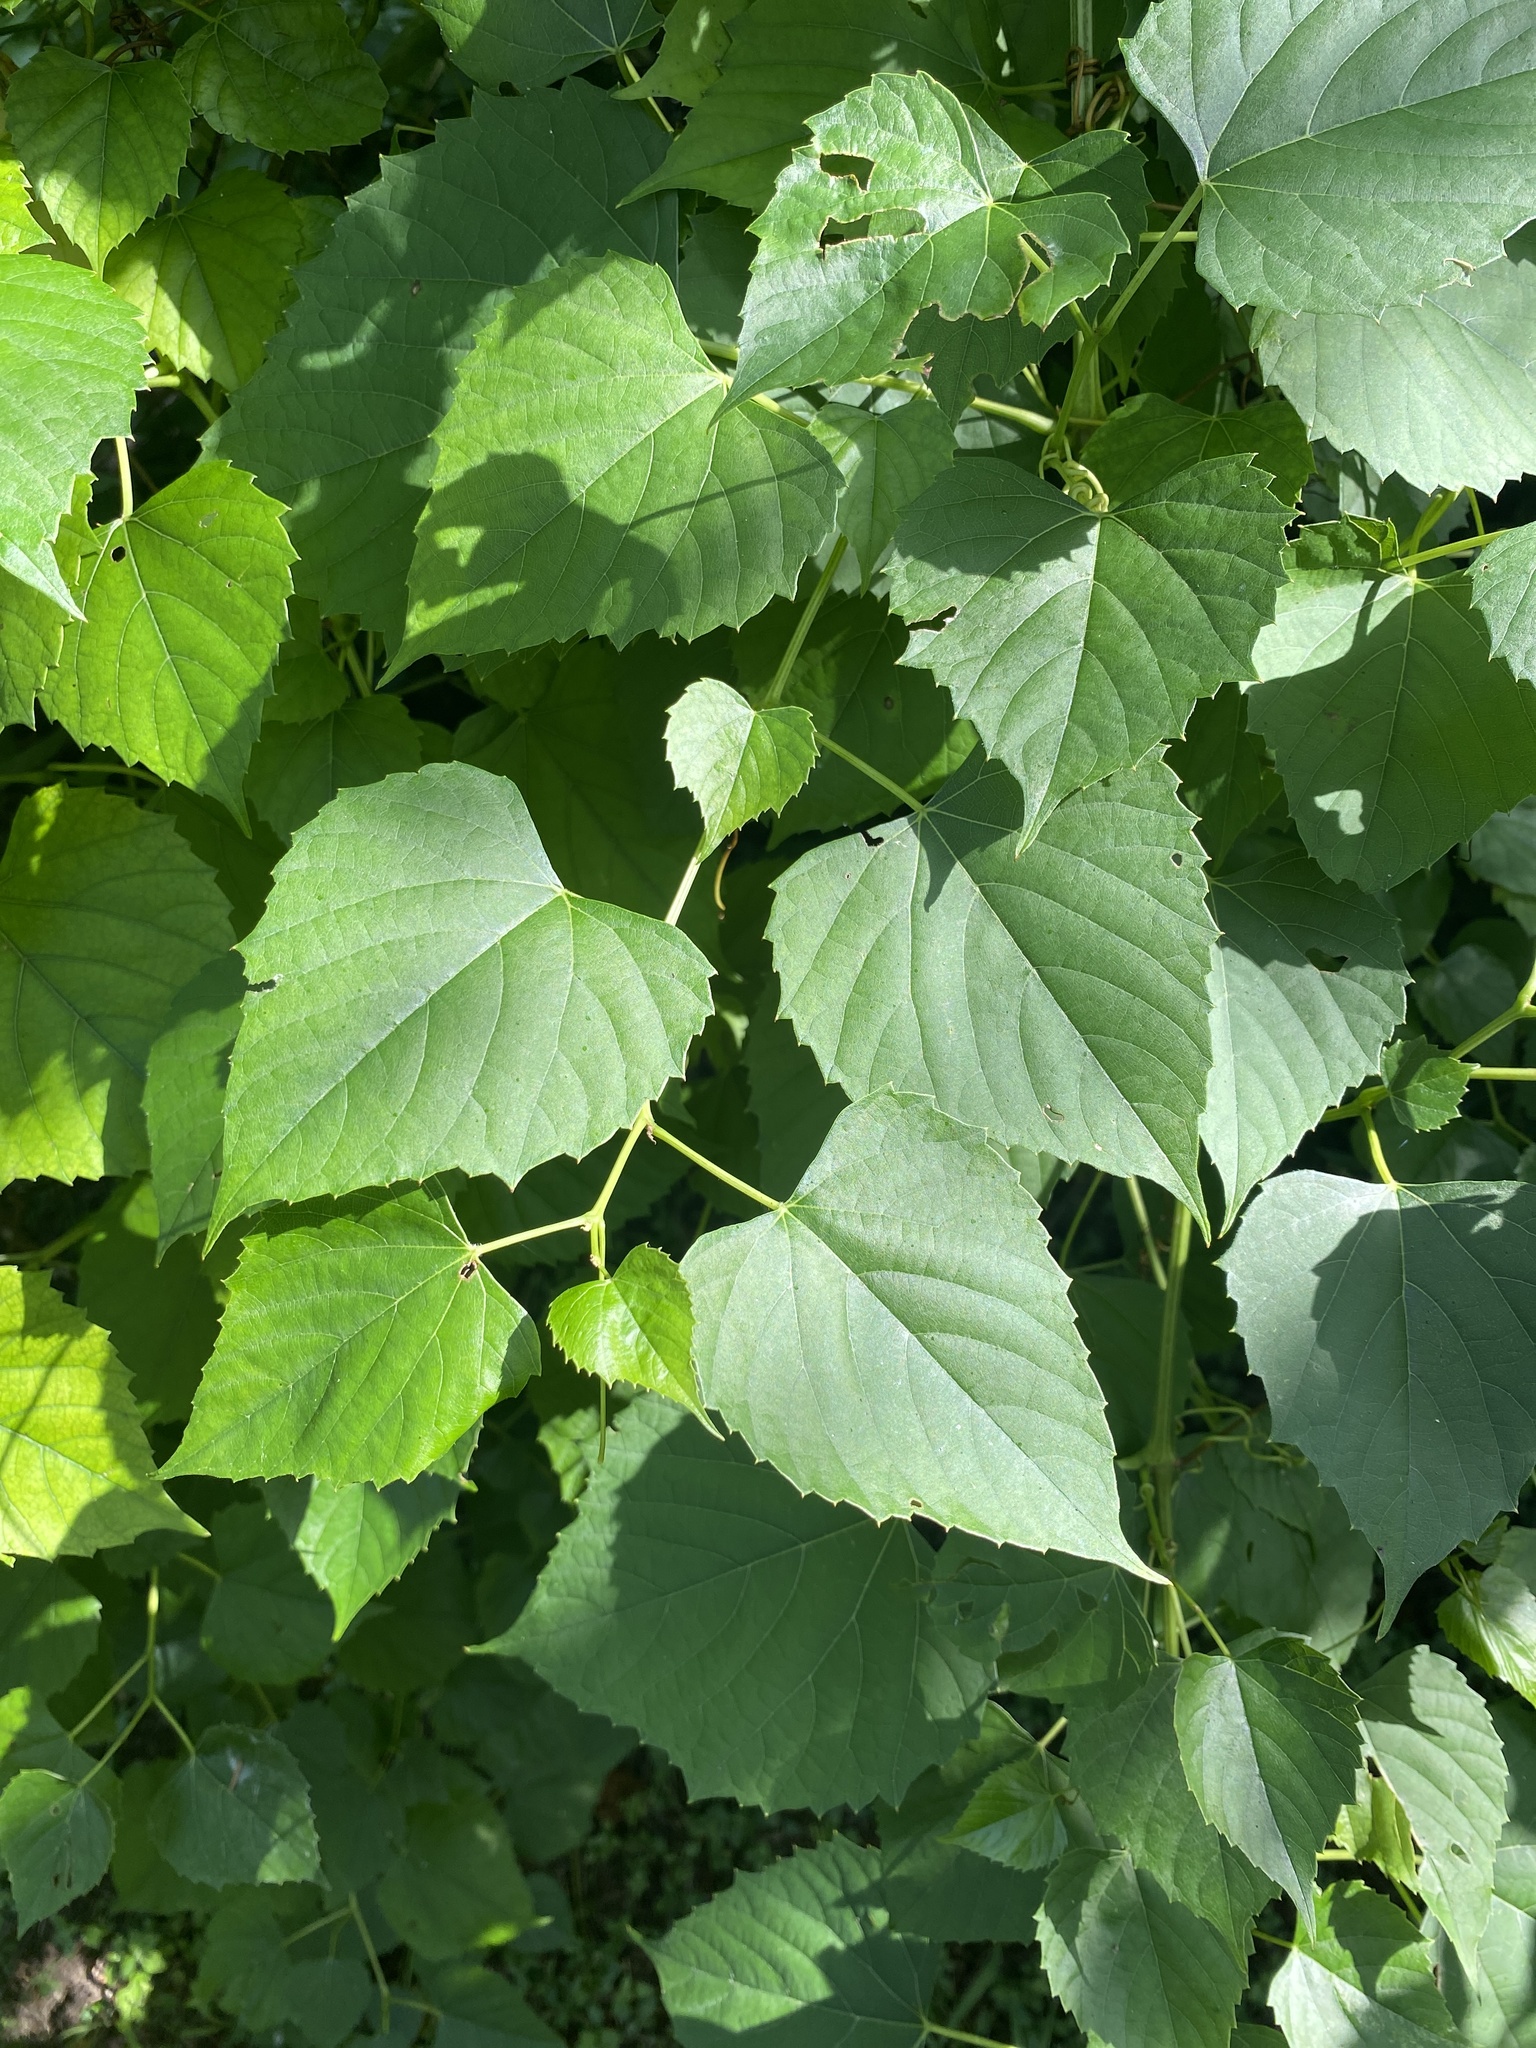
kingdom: Plantae
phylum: Tracheophyta
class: Magnoliopsida
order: Vitales
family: Vitaceae
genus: Ampelopsis
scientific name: Ampelopsis cordata
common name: Heart-leaf ampelopsis
